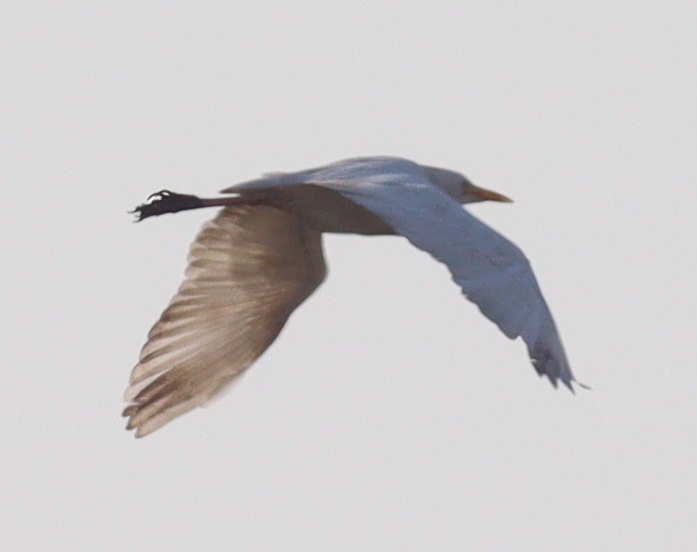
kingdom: Animalia
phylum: Chordata
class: Aves
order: Pelecaniformes
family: Ardeidae
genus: Bubulcus
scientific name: Bubulcus ibis
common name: Cattle egret
